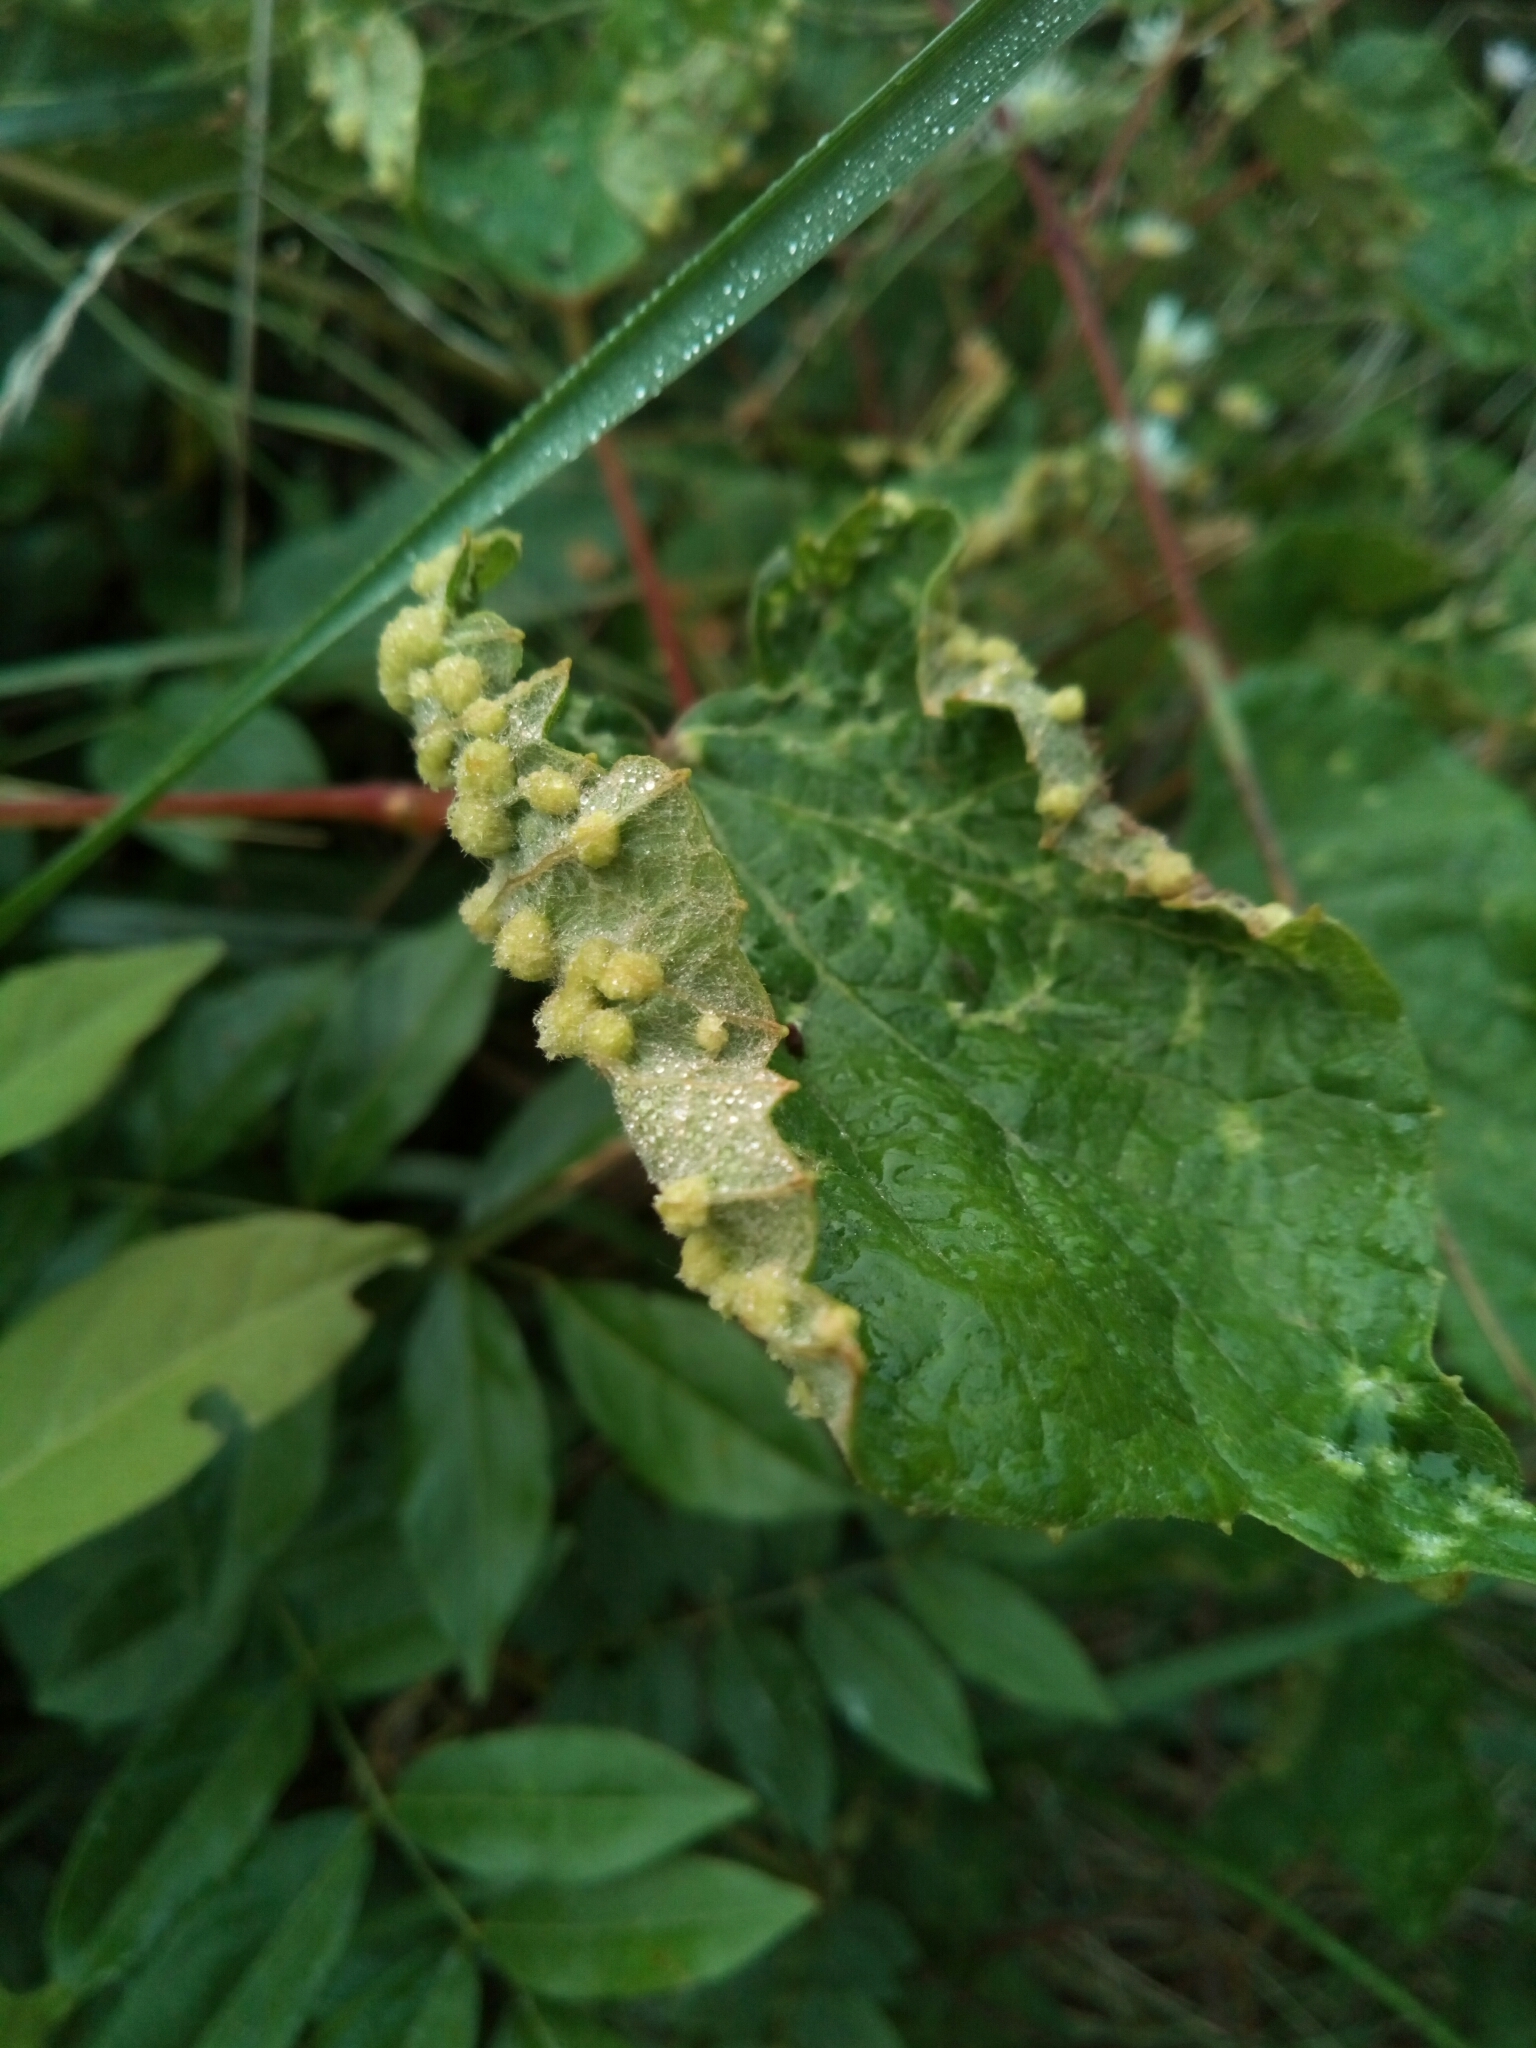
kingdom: Animalia
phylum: Arthropoda
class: Insecta
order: Hemiptera
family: Phylloxeridae
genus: Daktulosphaira
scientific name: Daktulosphaira vitifoliae
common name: Grape phylloxera
